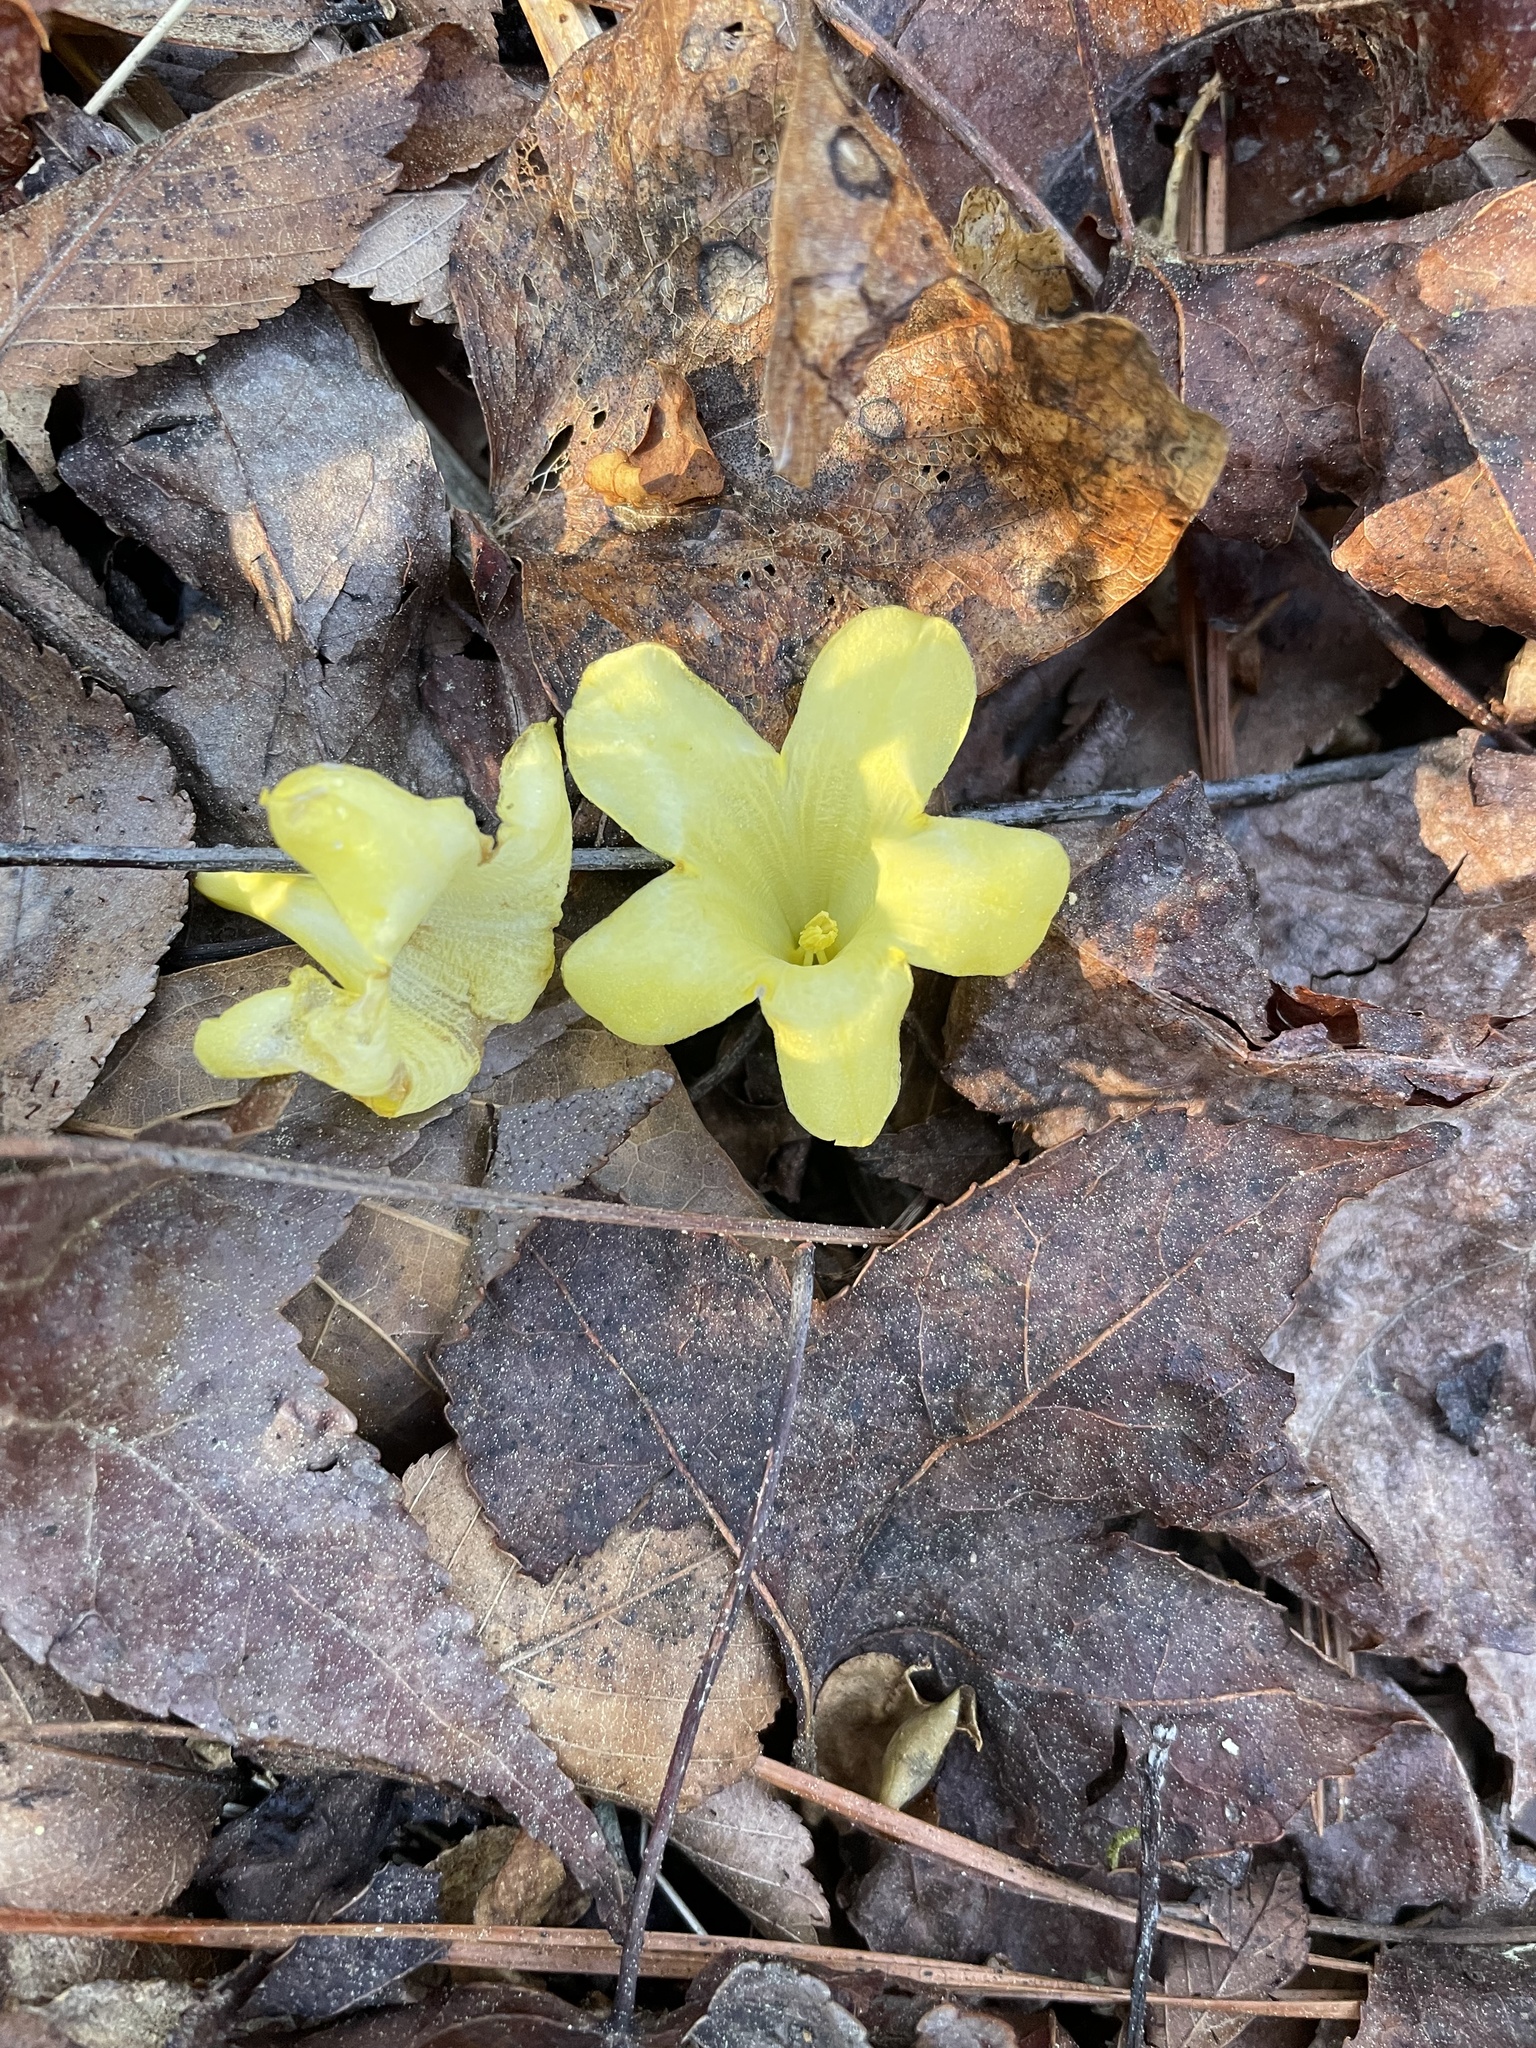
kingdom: Plantae
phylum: Tracheophyta
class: Magnoliopsida
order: Gentianales
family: Gelsemiaceae
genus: Gelsemium
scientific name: Gelsemium sempervirens
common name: Carolina-jasmine
